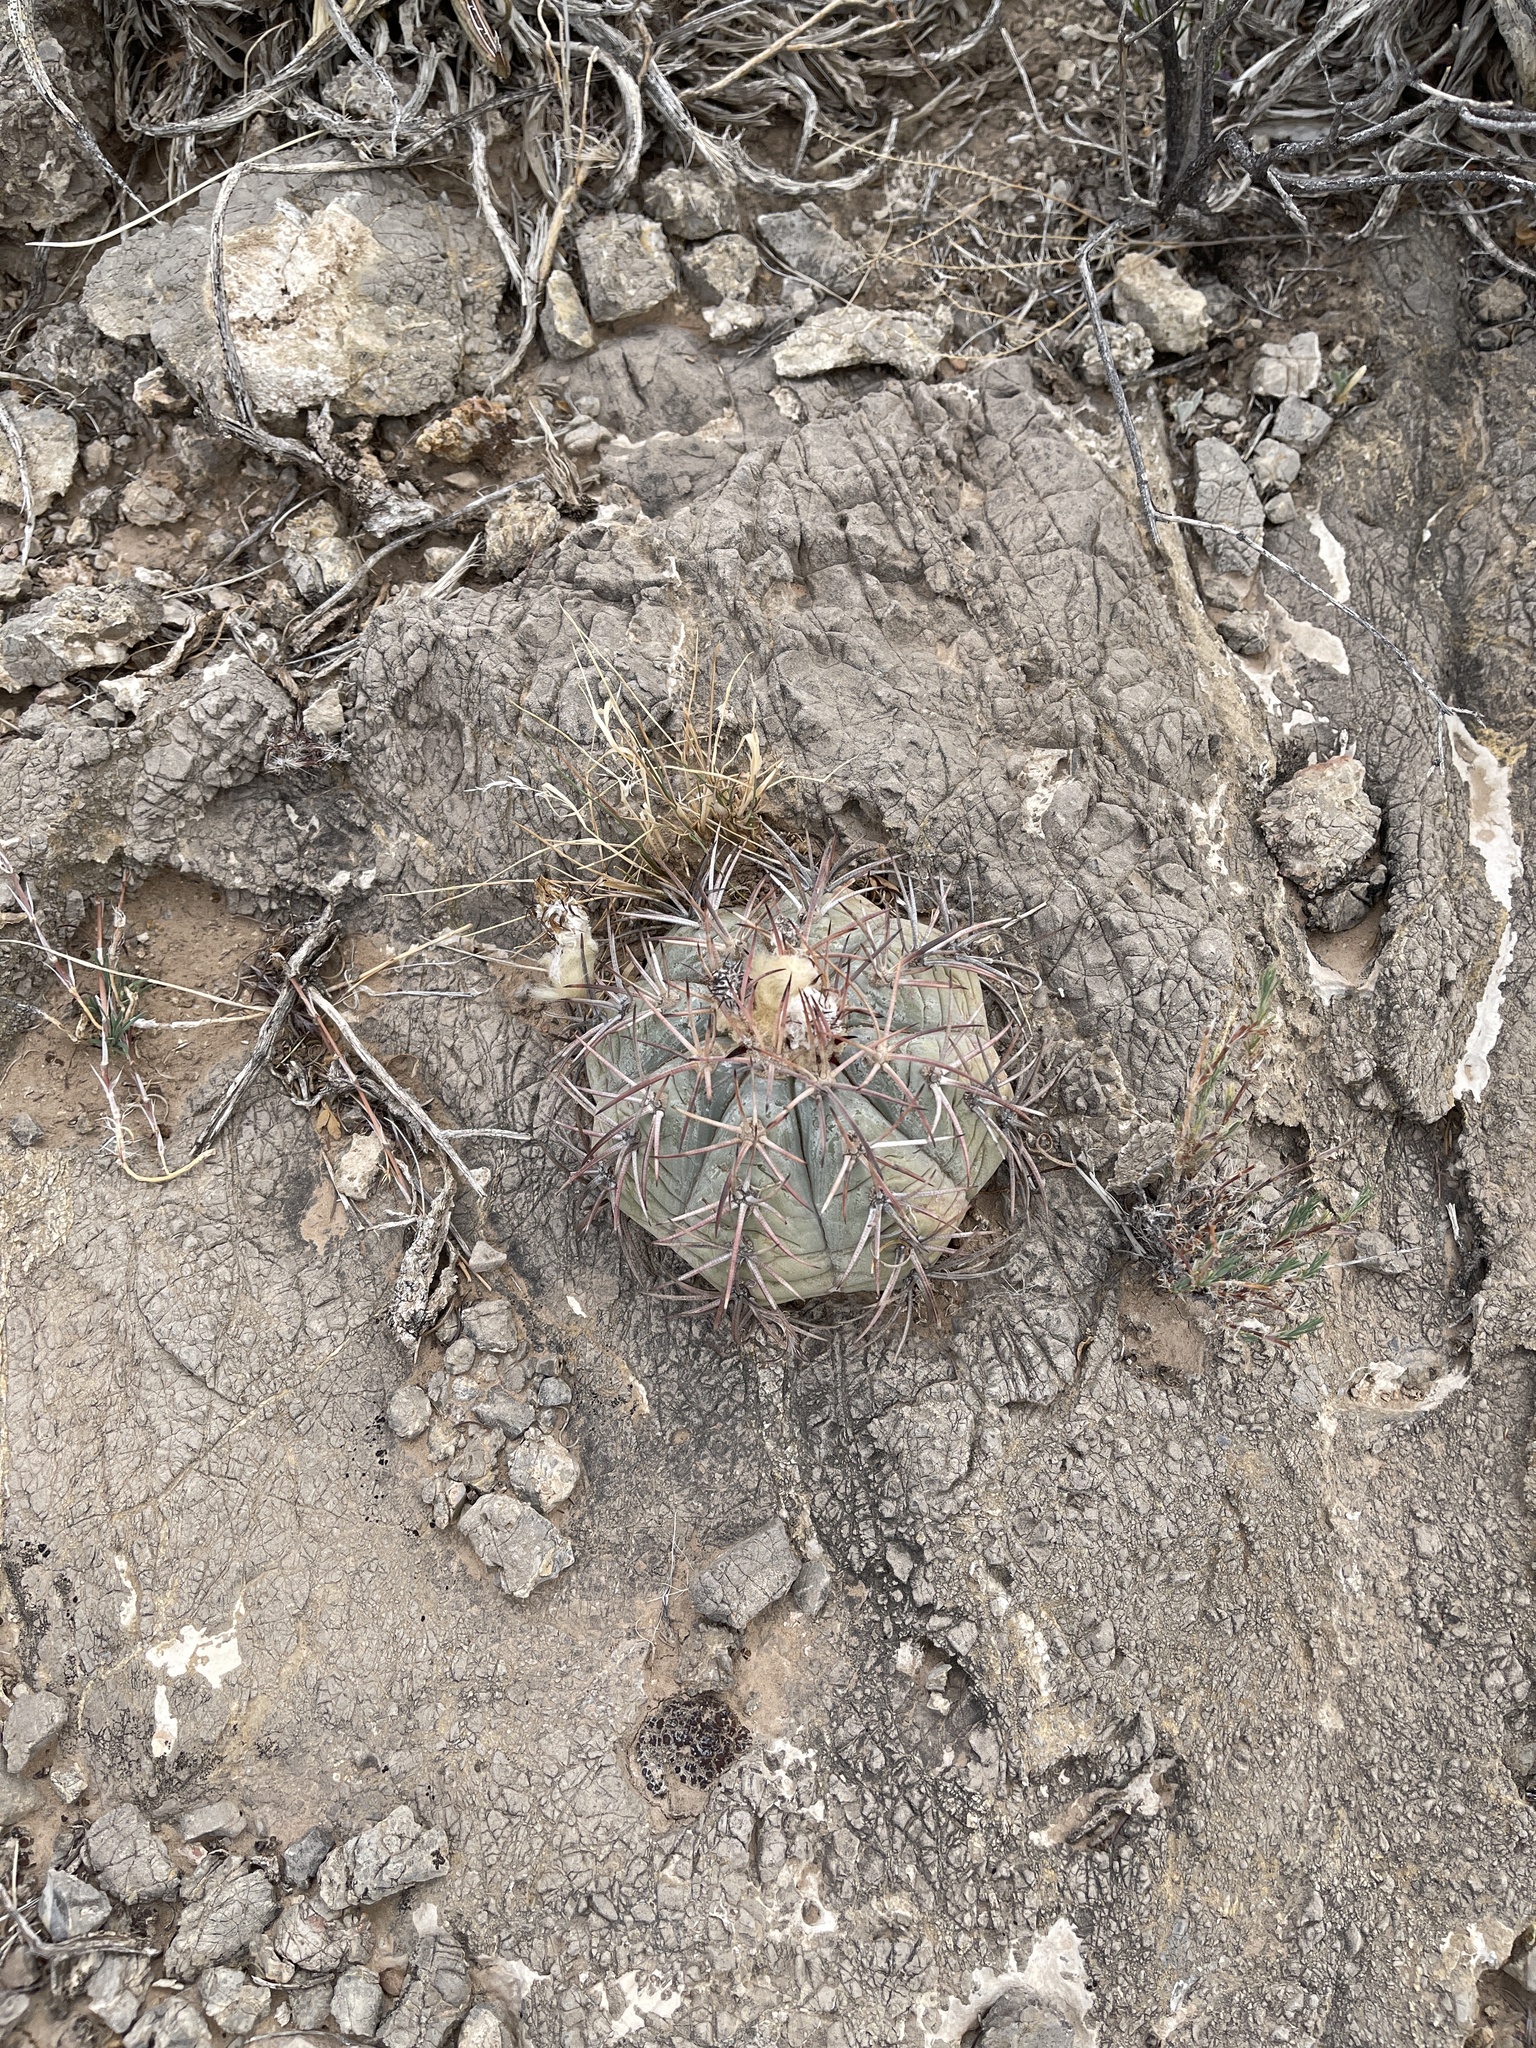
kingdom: Plantae
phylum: Tracheophyta
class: Magnoliopsida
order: Caryophyllales
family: Cactaceae
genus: Echinocactus
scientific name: Echinocactus horizonthalonius
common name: Devilshead
